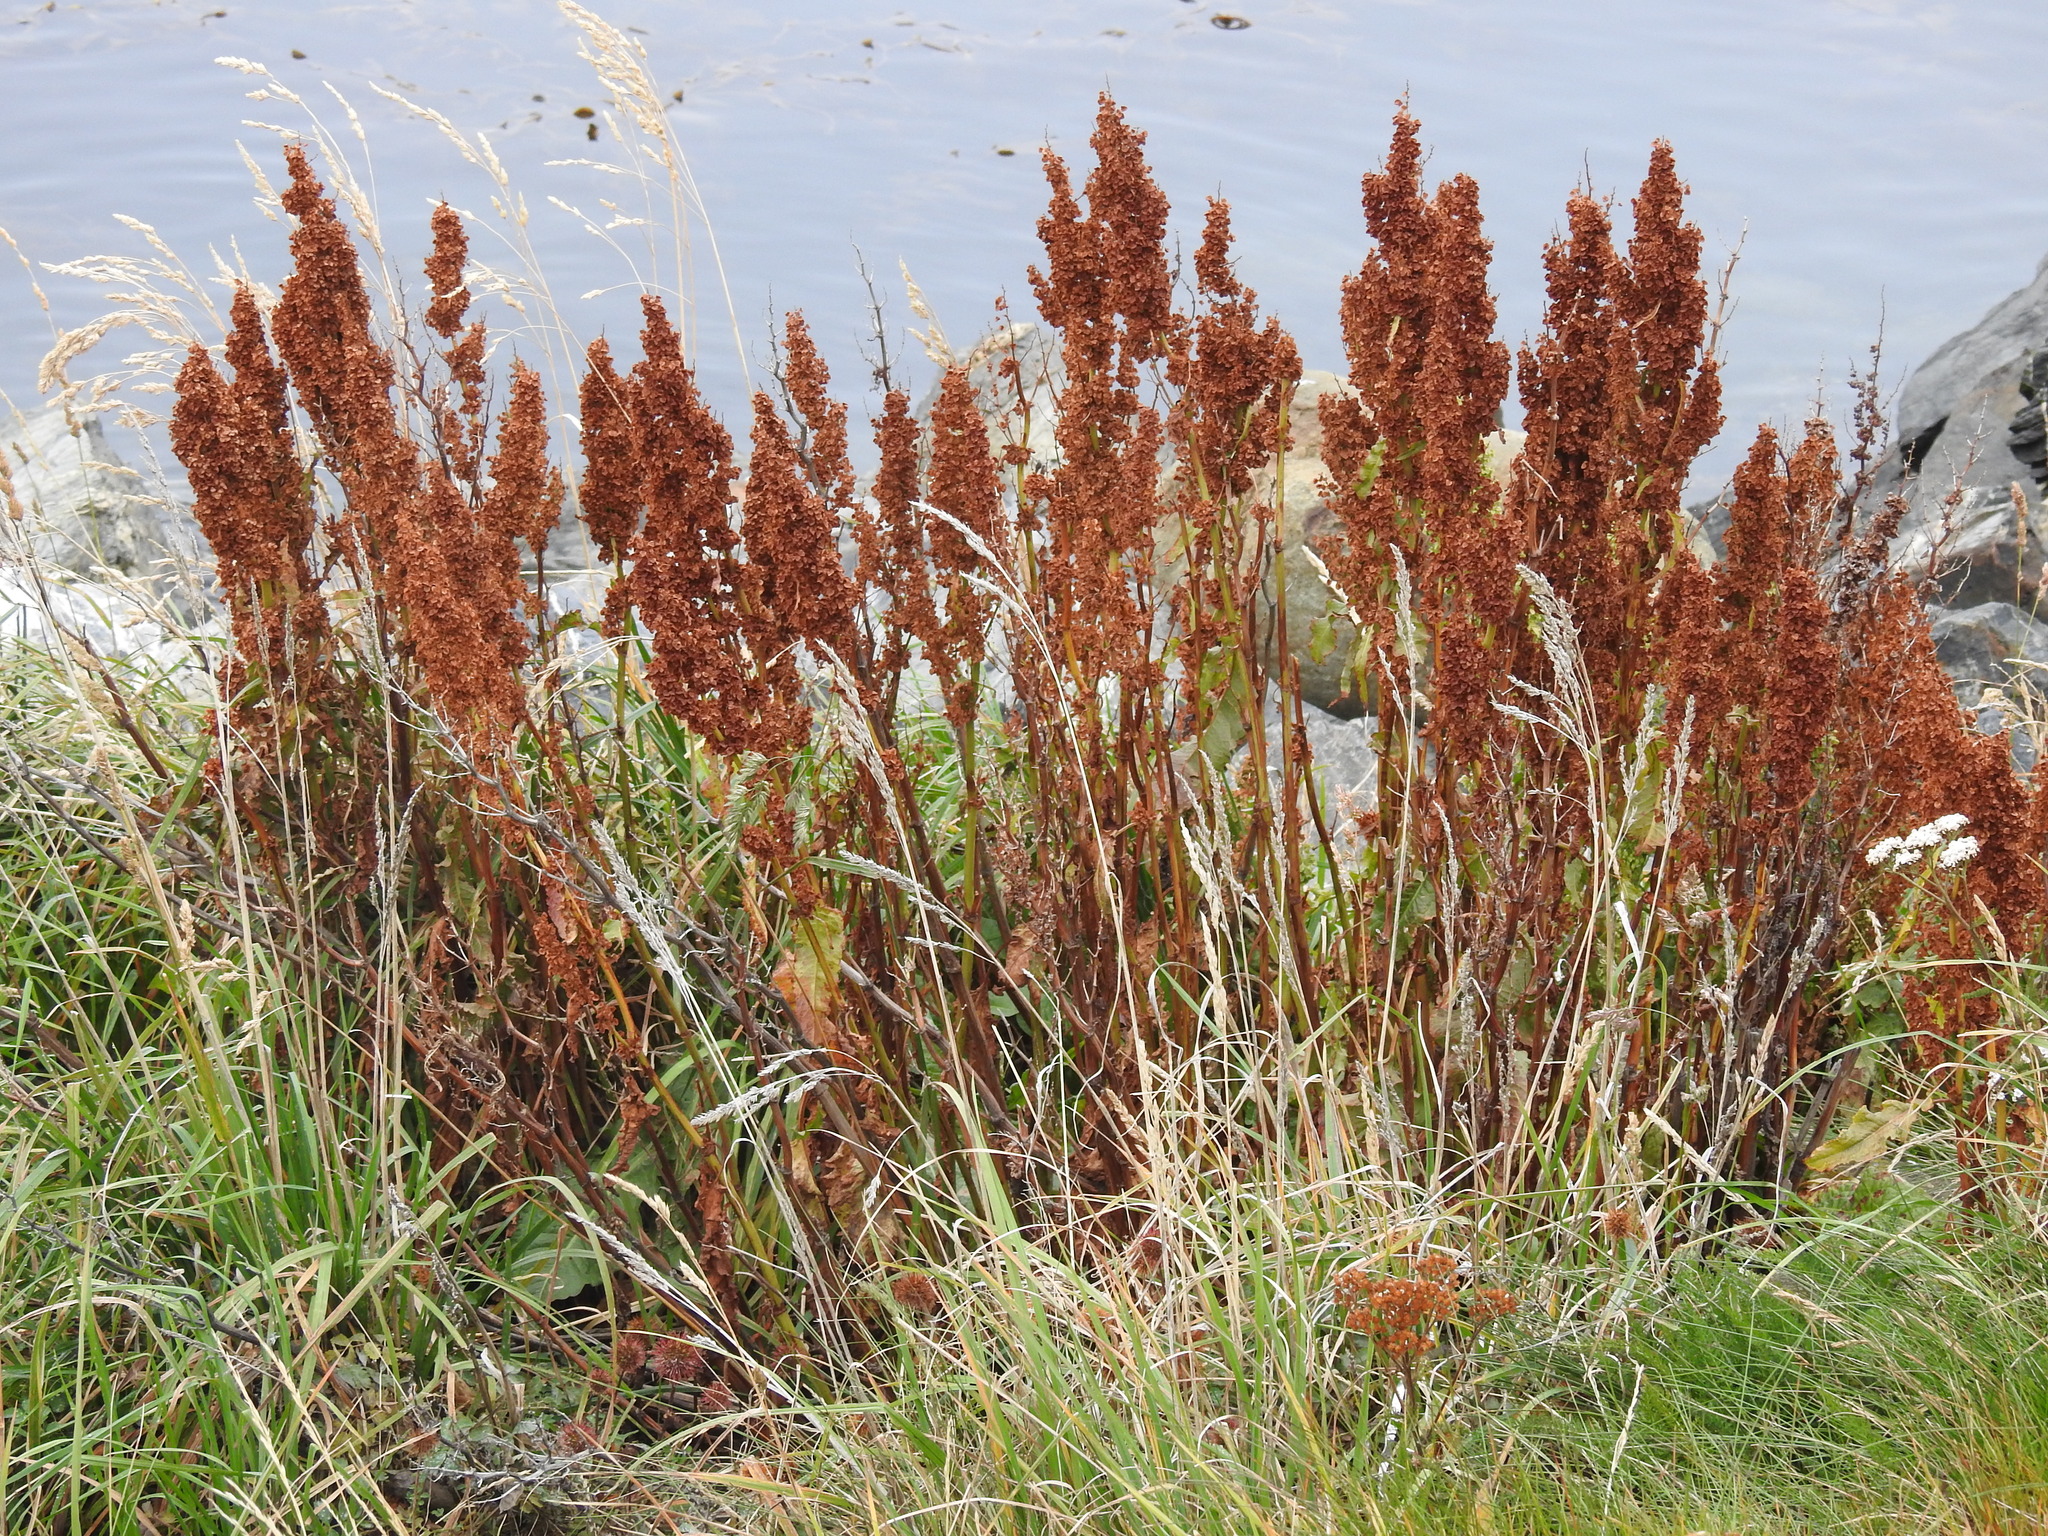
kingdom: Plantae
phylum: Tracheophyta
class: Magnoliopsida
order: Caryophyllales
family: Polygonaceae
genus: Rumex
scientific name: Rumex crispus
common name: Curled dock
